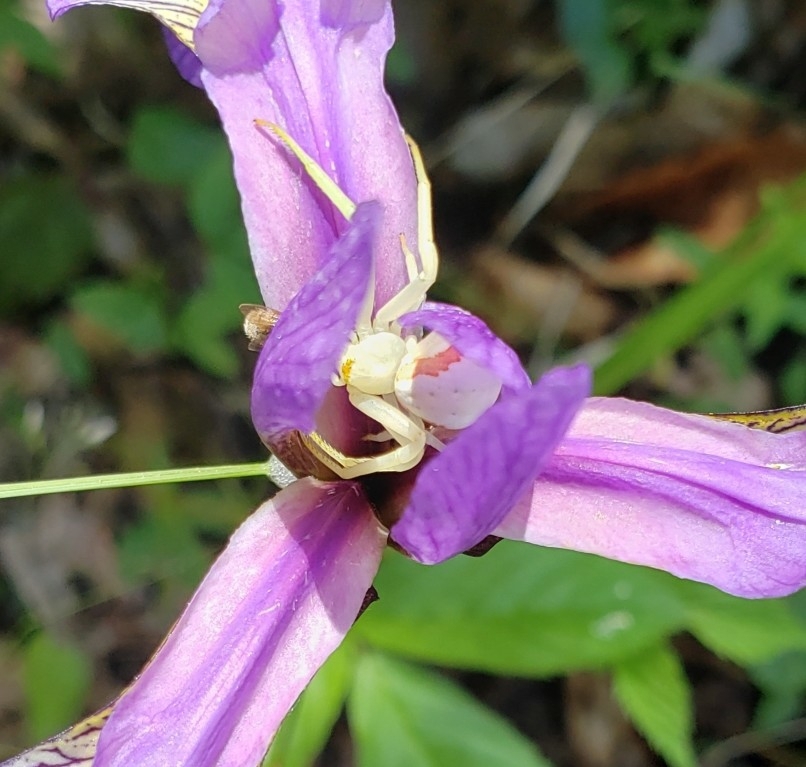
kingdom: Animalia
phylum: Arthropoda
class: Arachnida
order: Araneae
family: Thomisidae
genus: Misumena
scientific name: Misumena vatia
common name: Goldenrod crab spider
